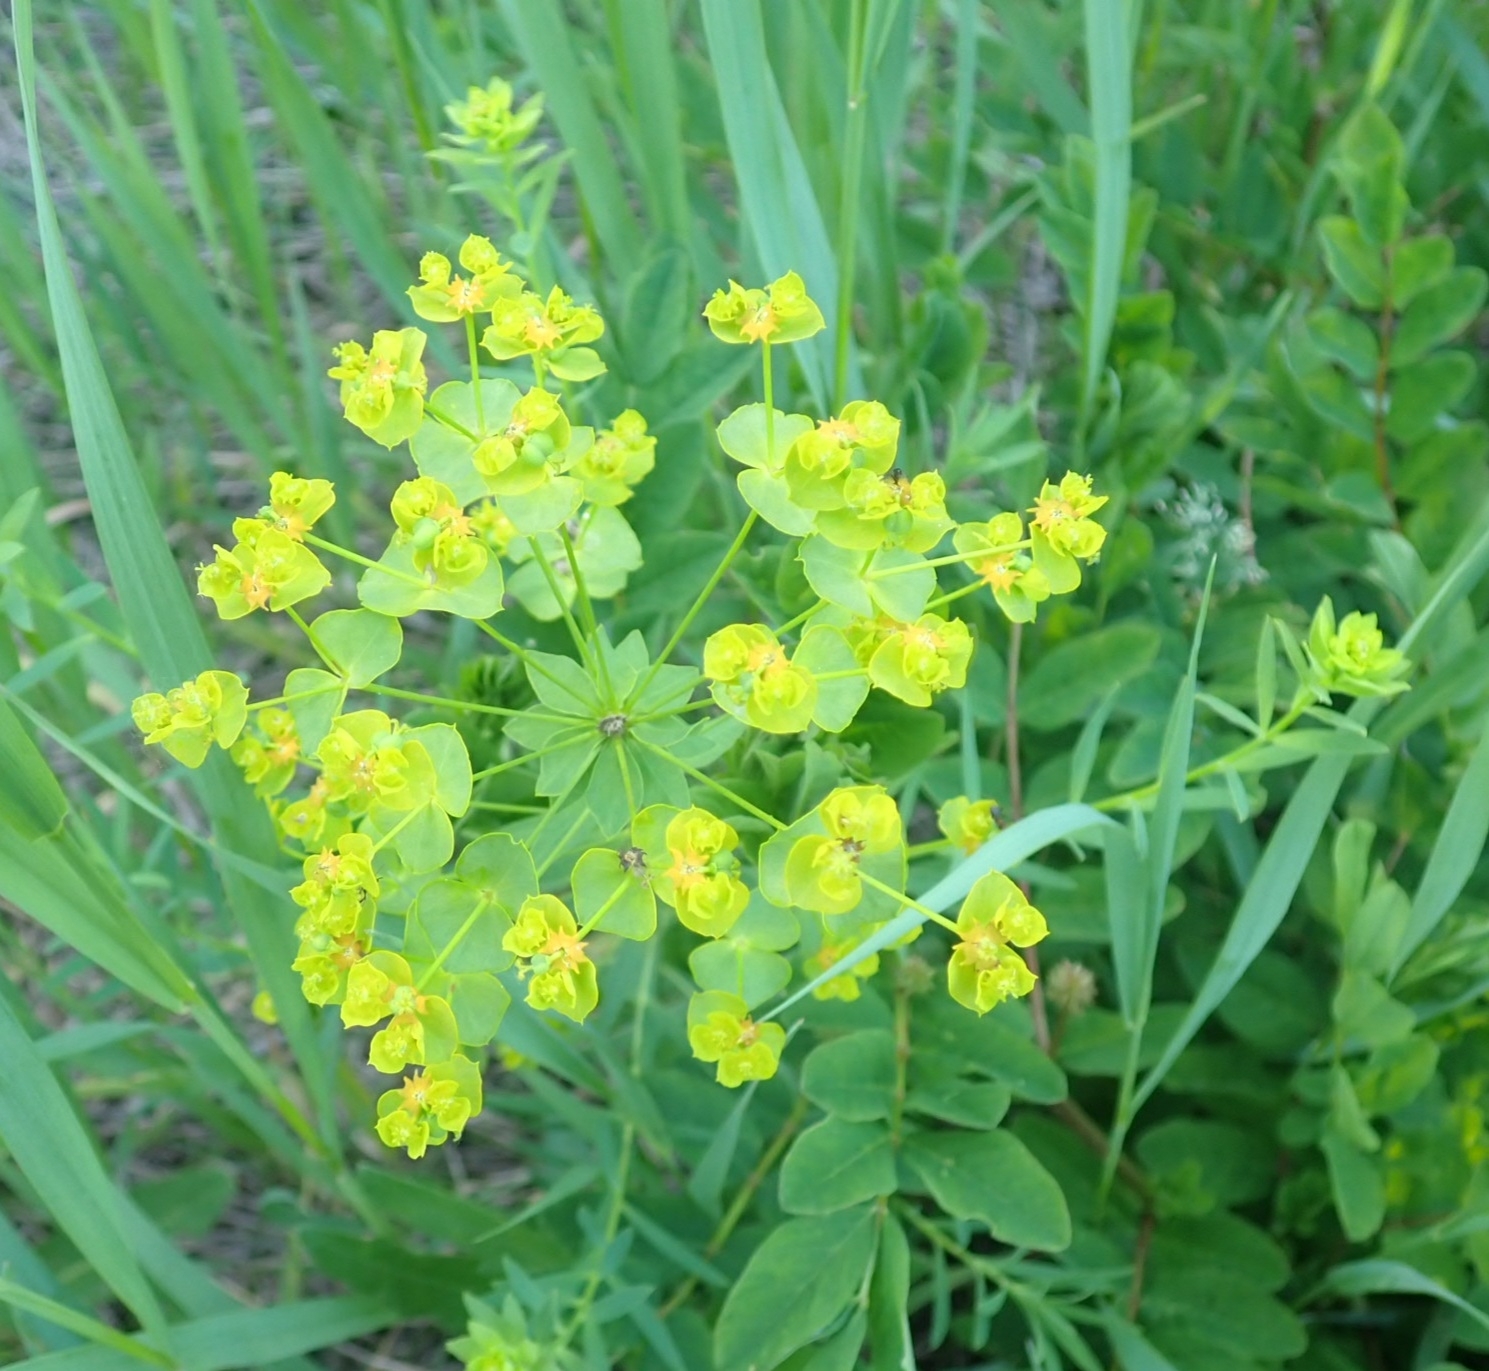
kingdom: Plantae
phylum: Tracheophyta
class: Magnoliopsida
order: Malpighiales
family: Euphorbiaceae
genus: Euphorbia
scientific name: Euphorbia virgata
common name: Leafy spurge
